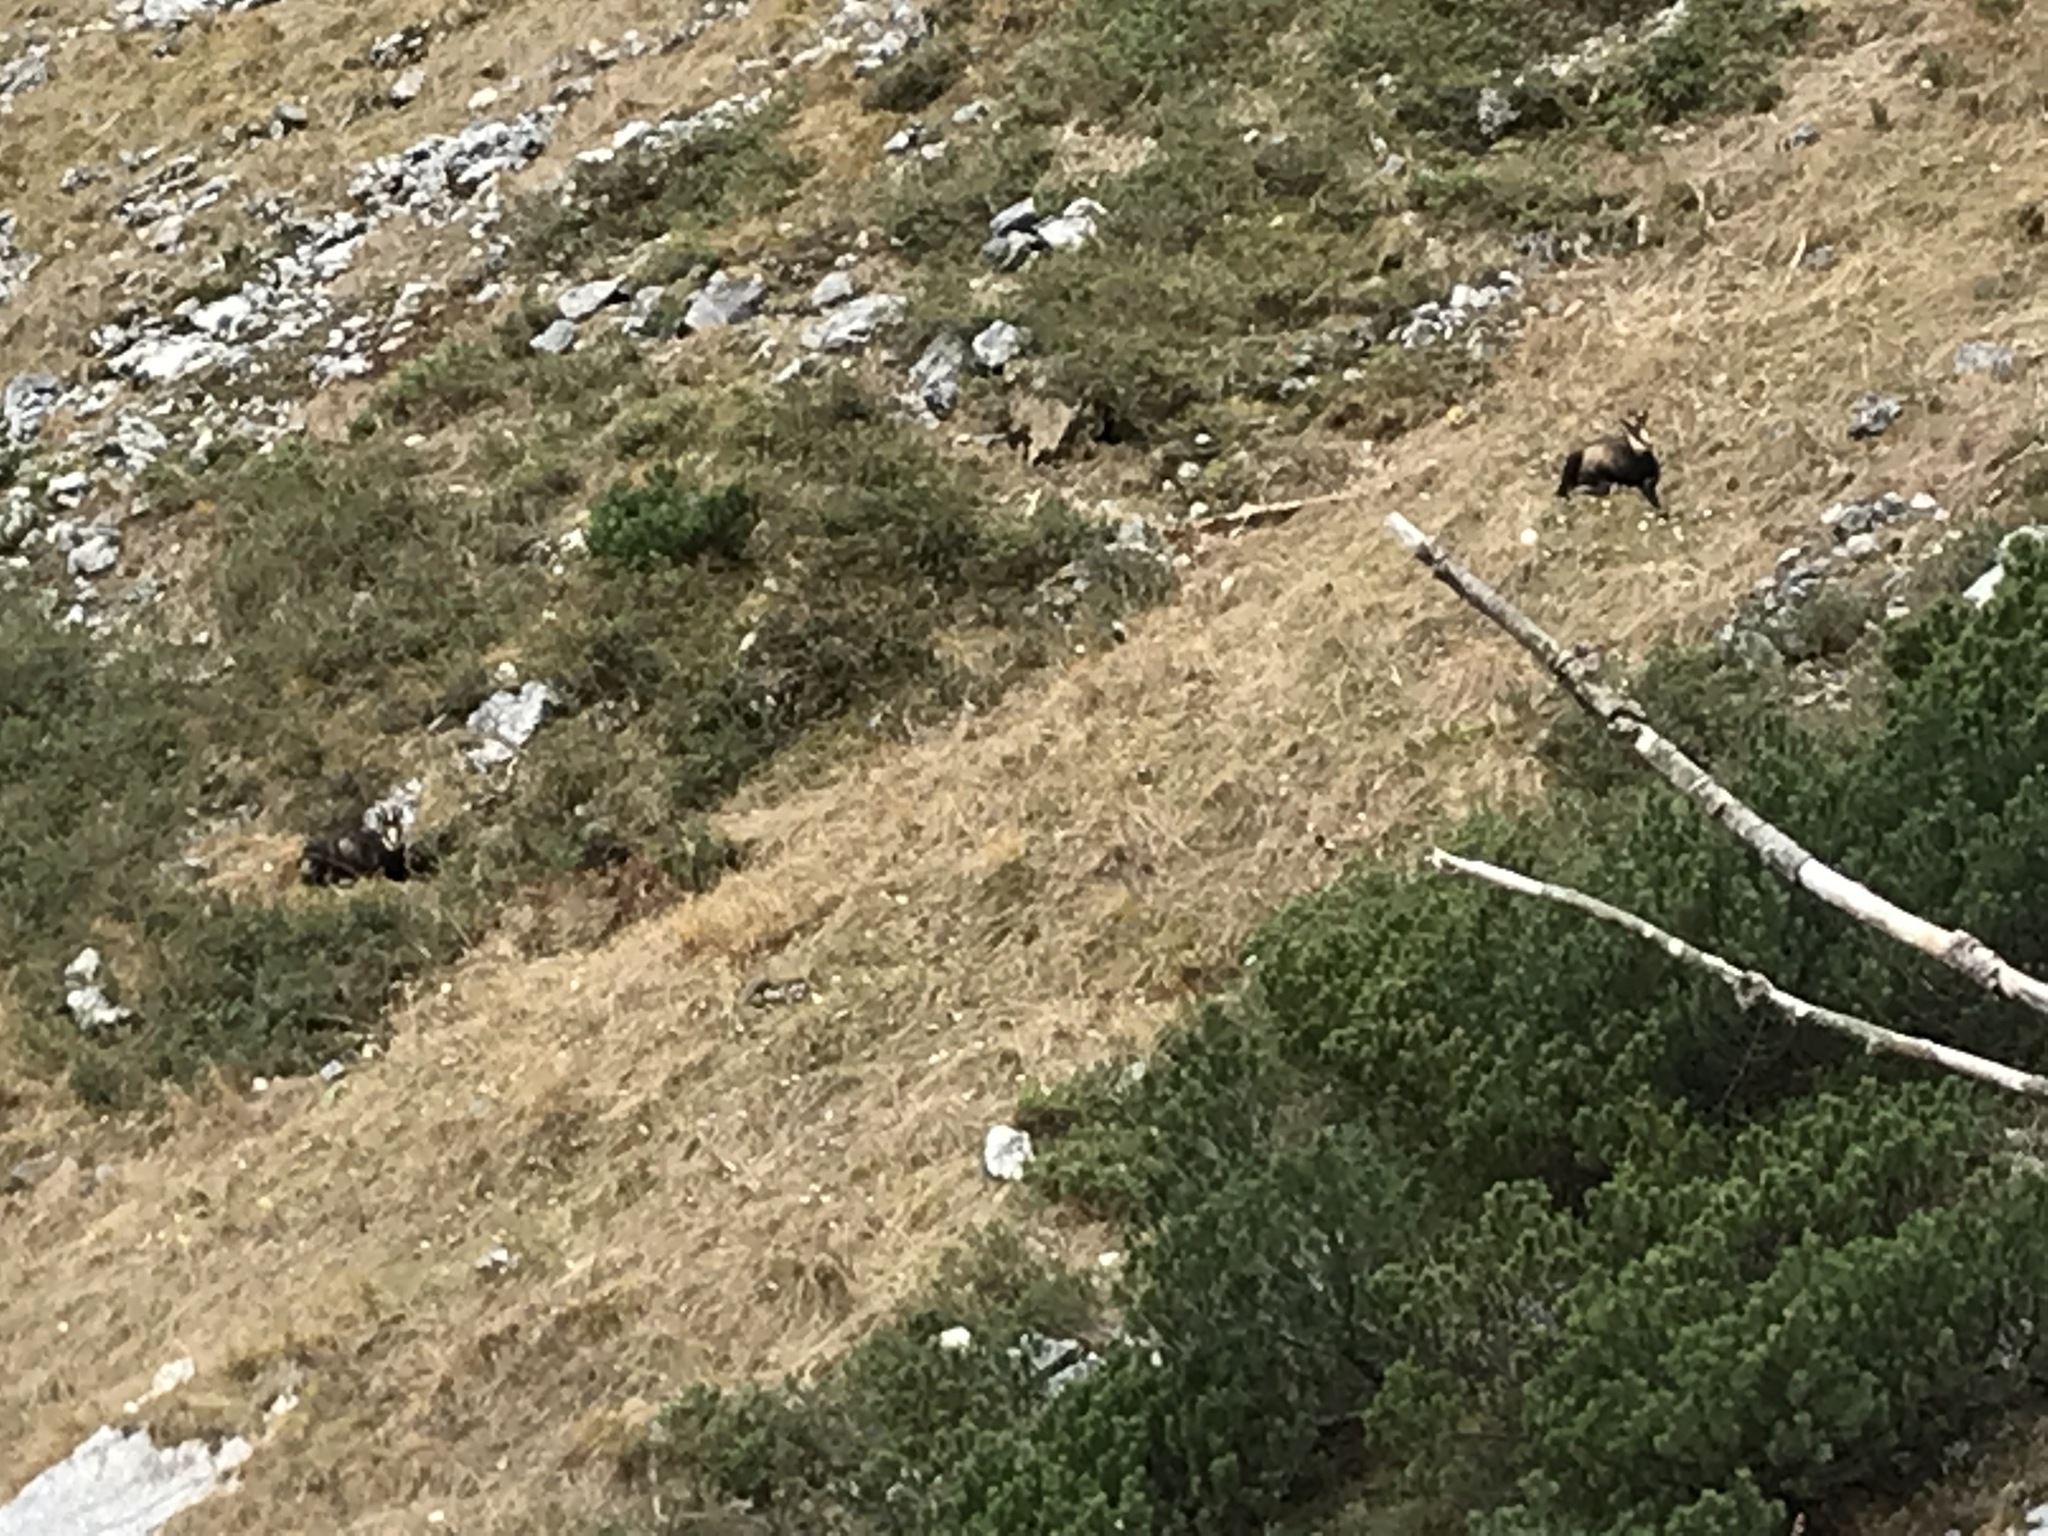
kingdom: Animalia
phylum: Chordata
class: Mammalia
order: Artiodactyla
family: Bovidae
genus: Rupicapra
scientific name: Rupicapra rupicapra
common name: Chamois
